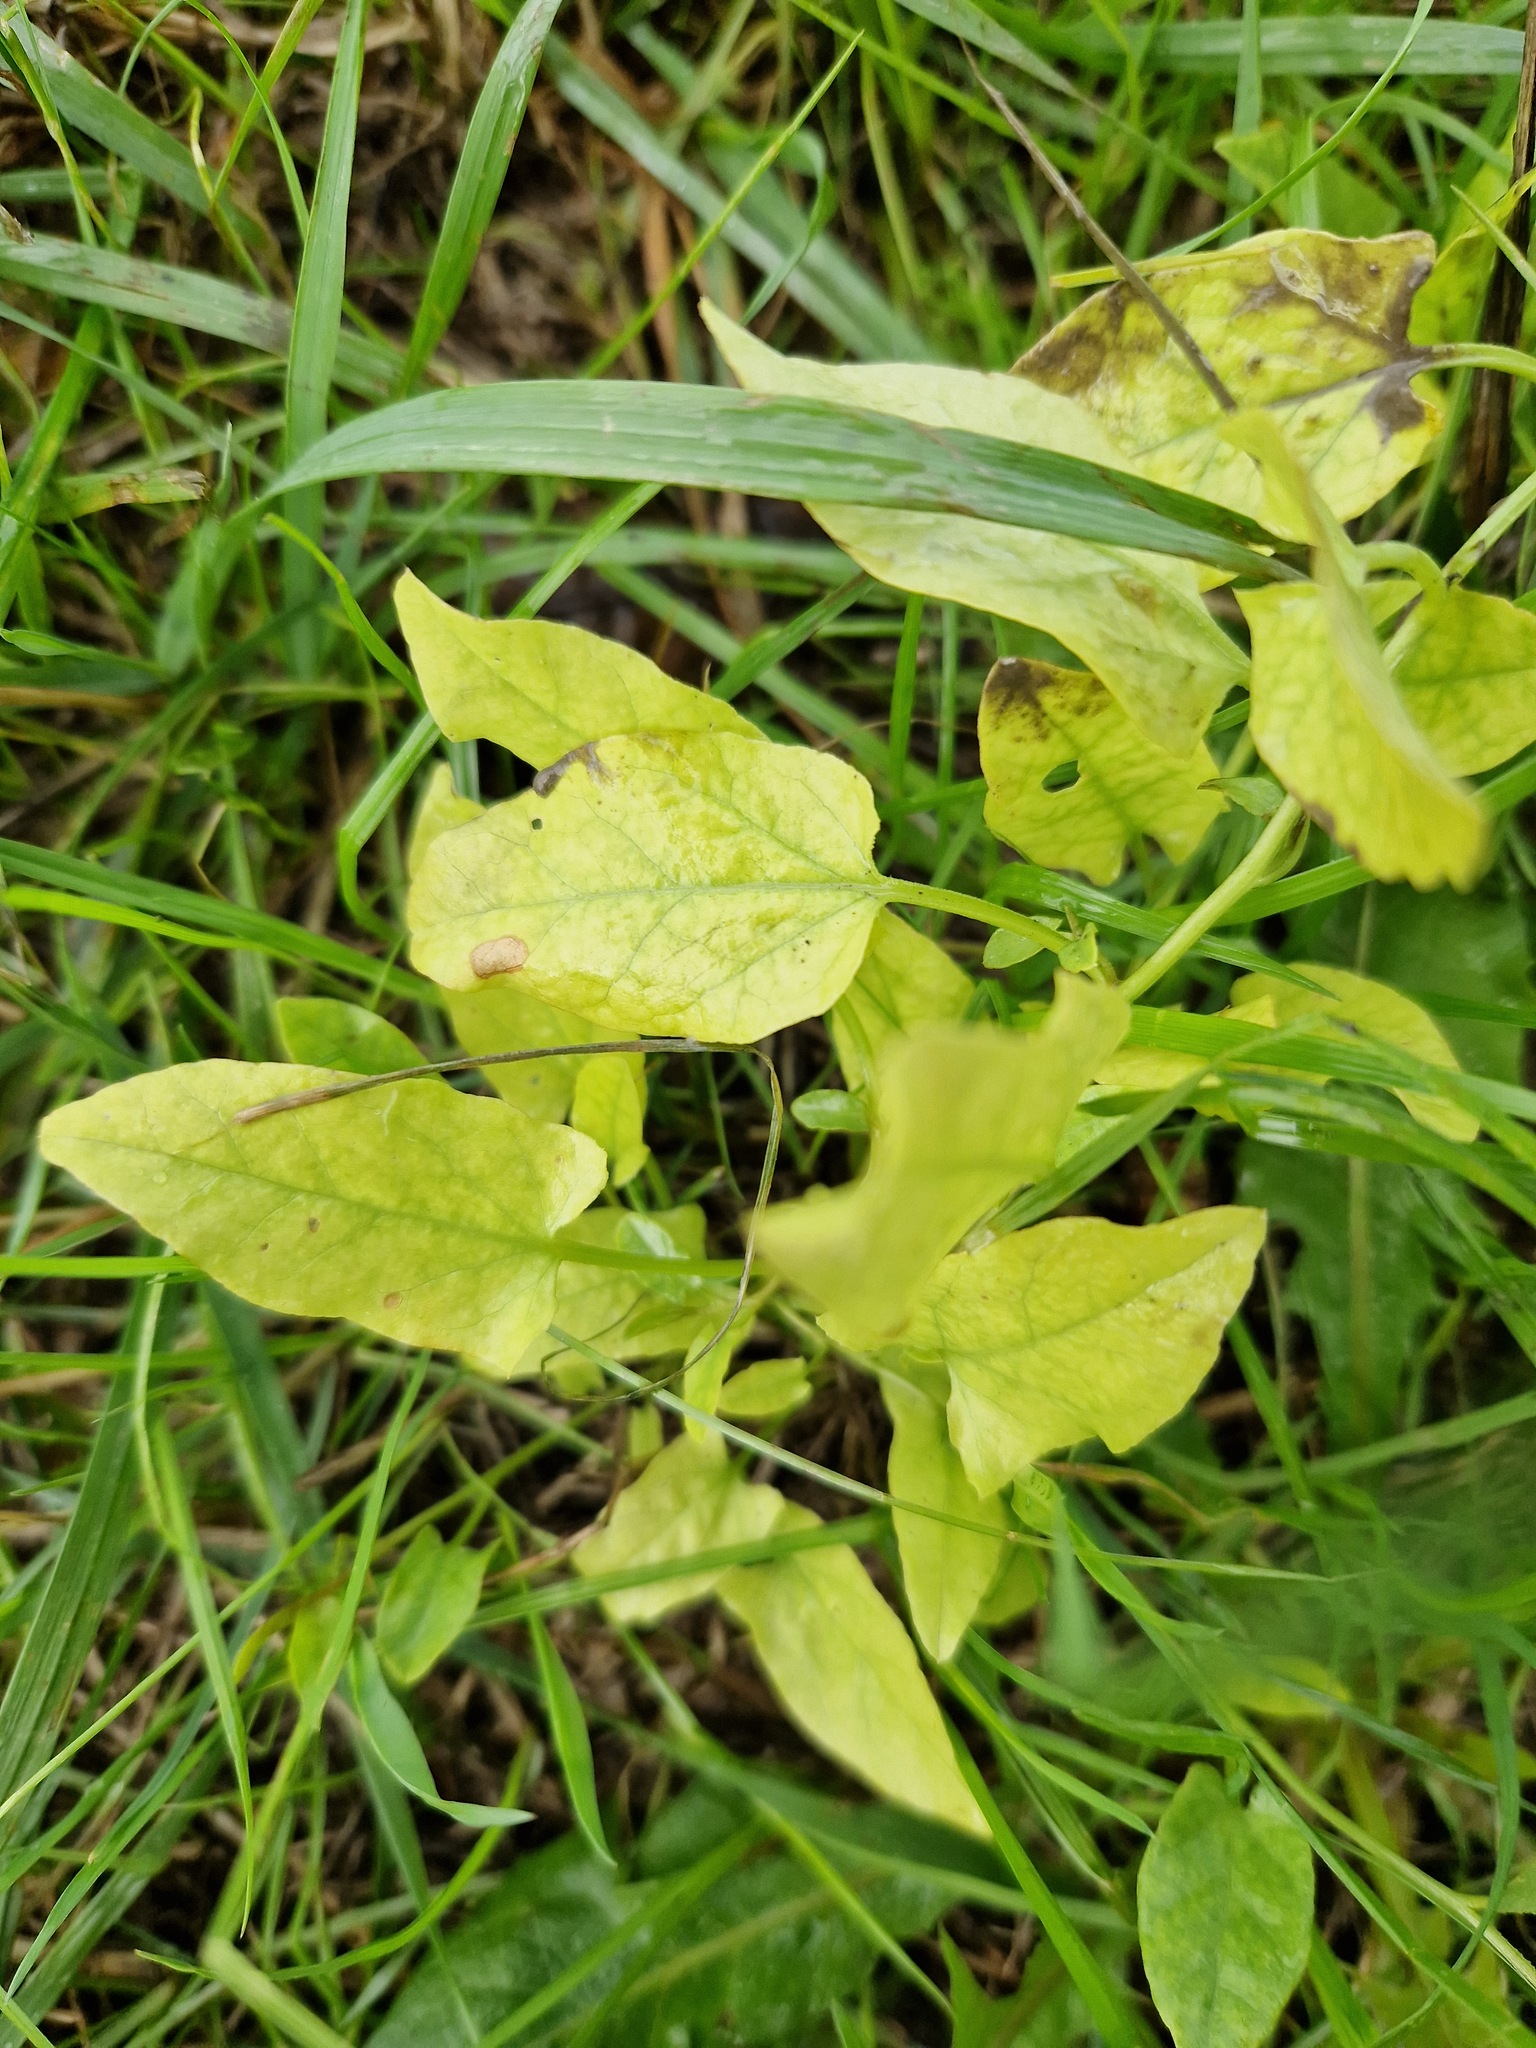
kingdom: Plantae
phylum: Tracheophyta
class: Magnoliopsida
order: Solanales
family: Convolvulaceae
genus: Convolvulus
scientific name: Convolvulus arvensis
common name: Field bindweed
